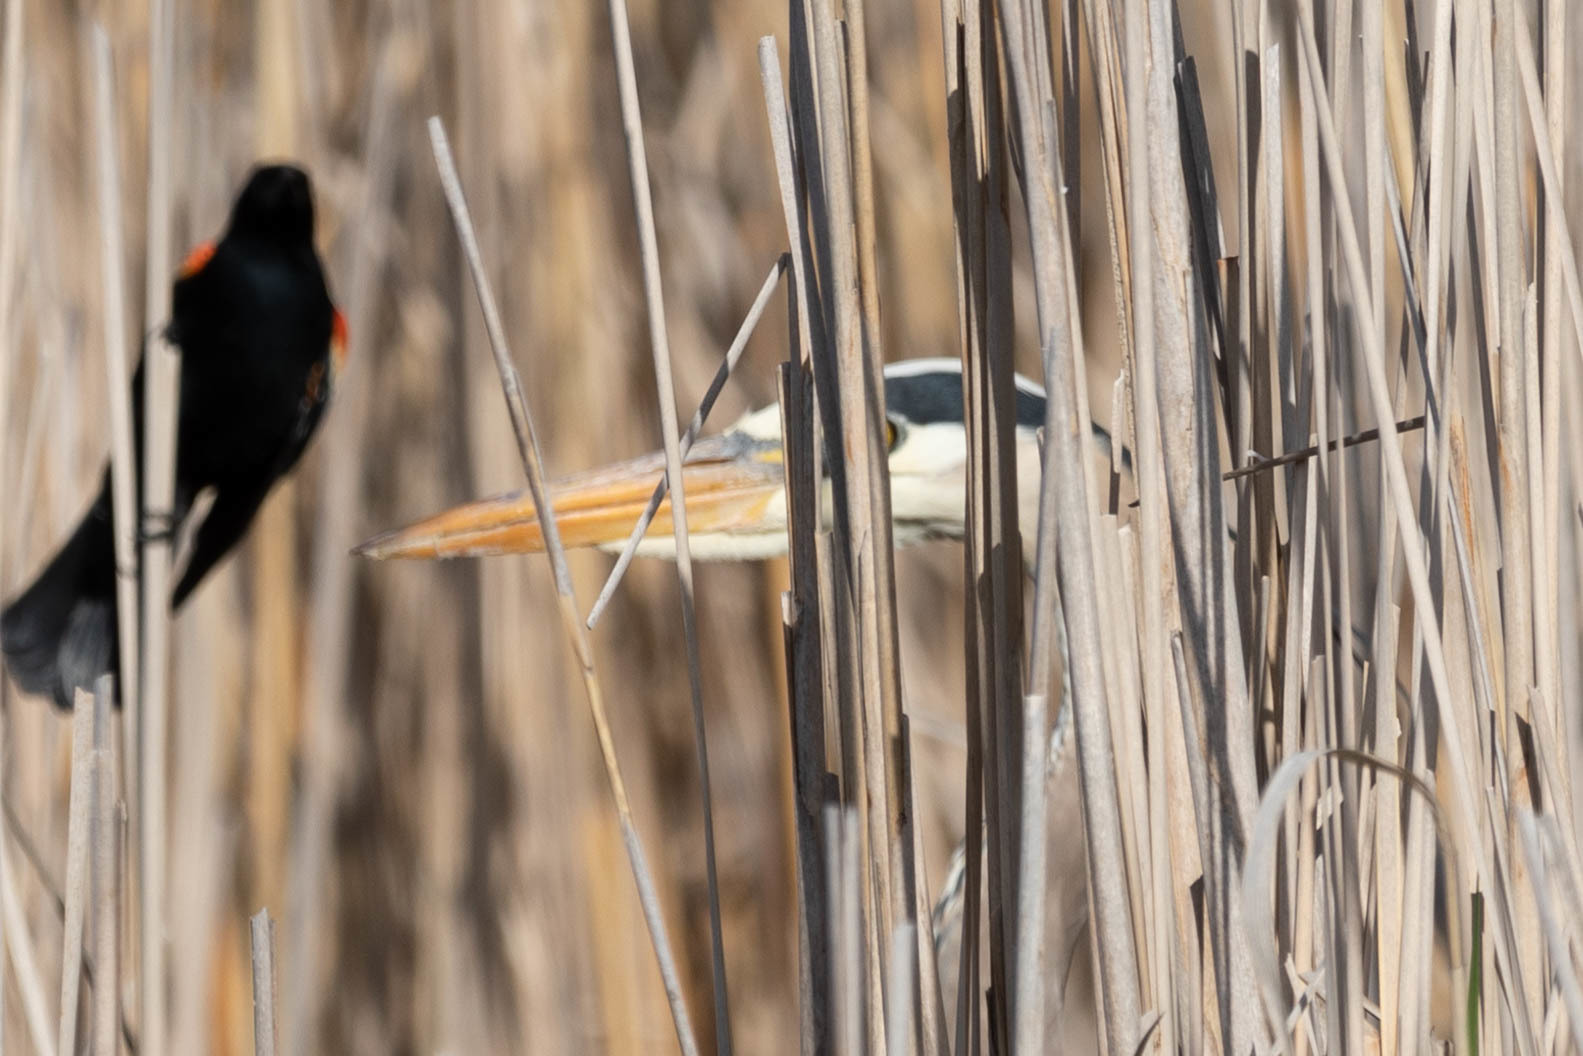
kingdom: Animalia
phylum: Chordata
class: Aves
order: Pelecaniformes
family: Ardeidae
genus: Ardea
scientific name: Ardea herodias
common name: Great blue heron
